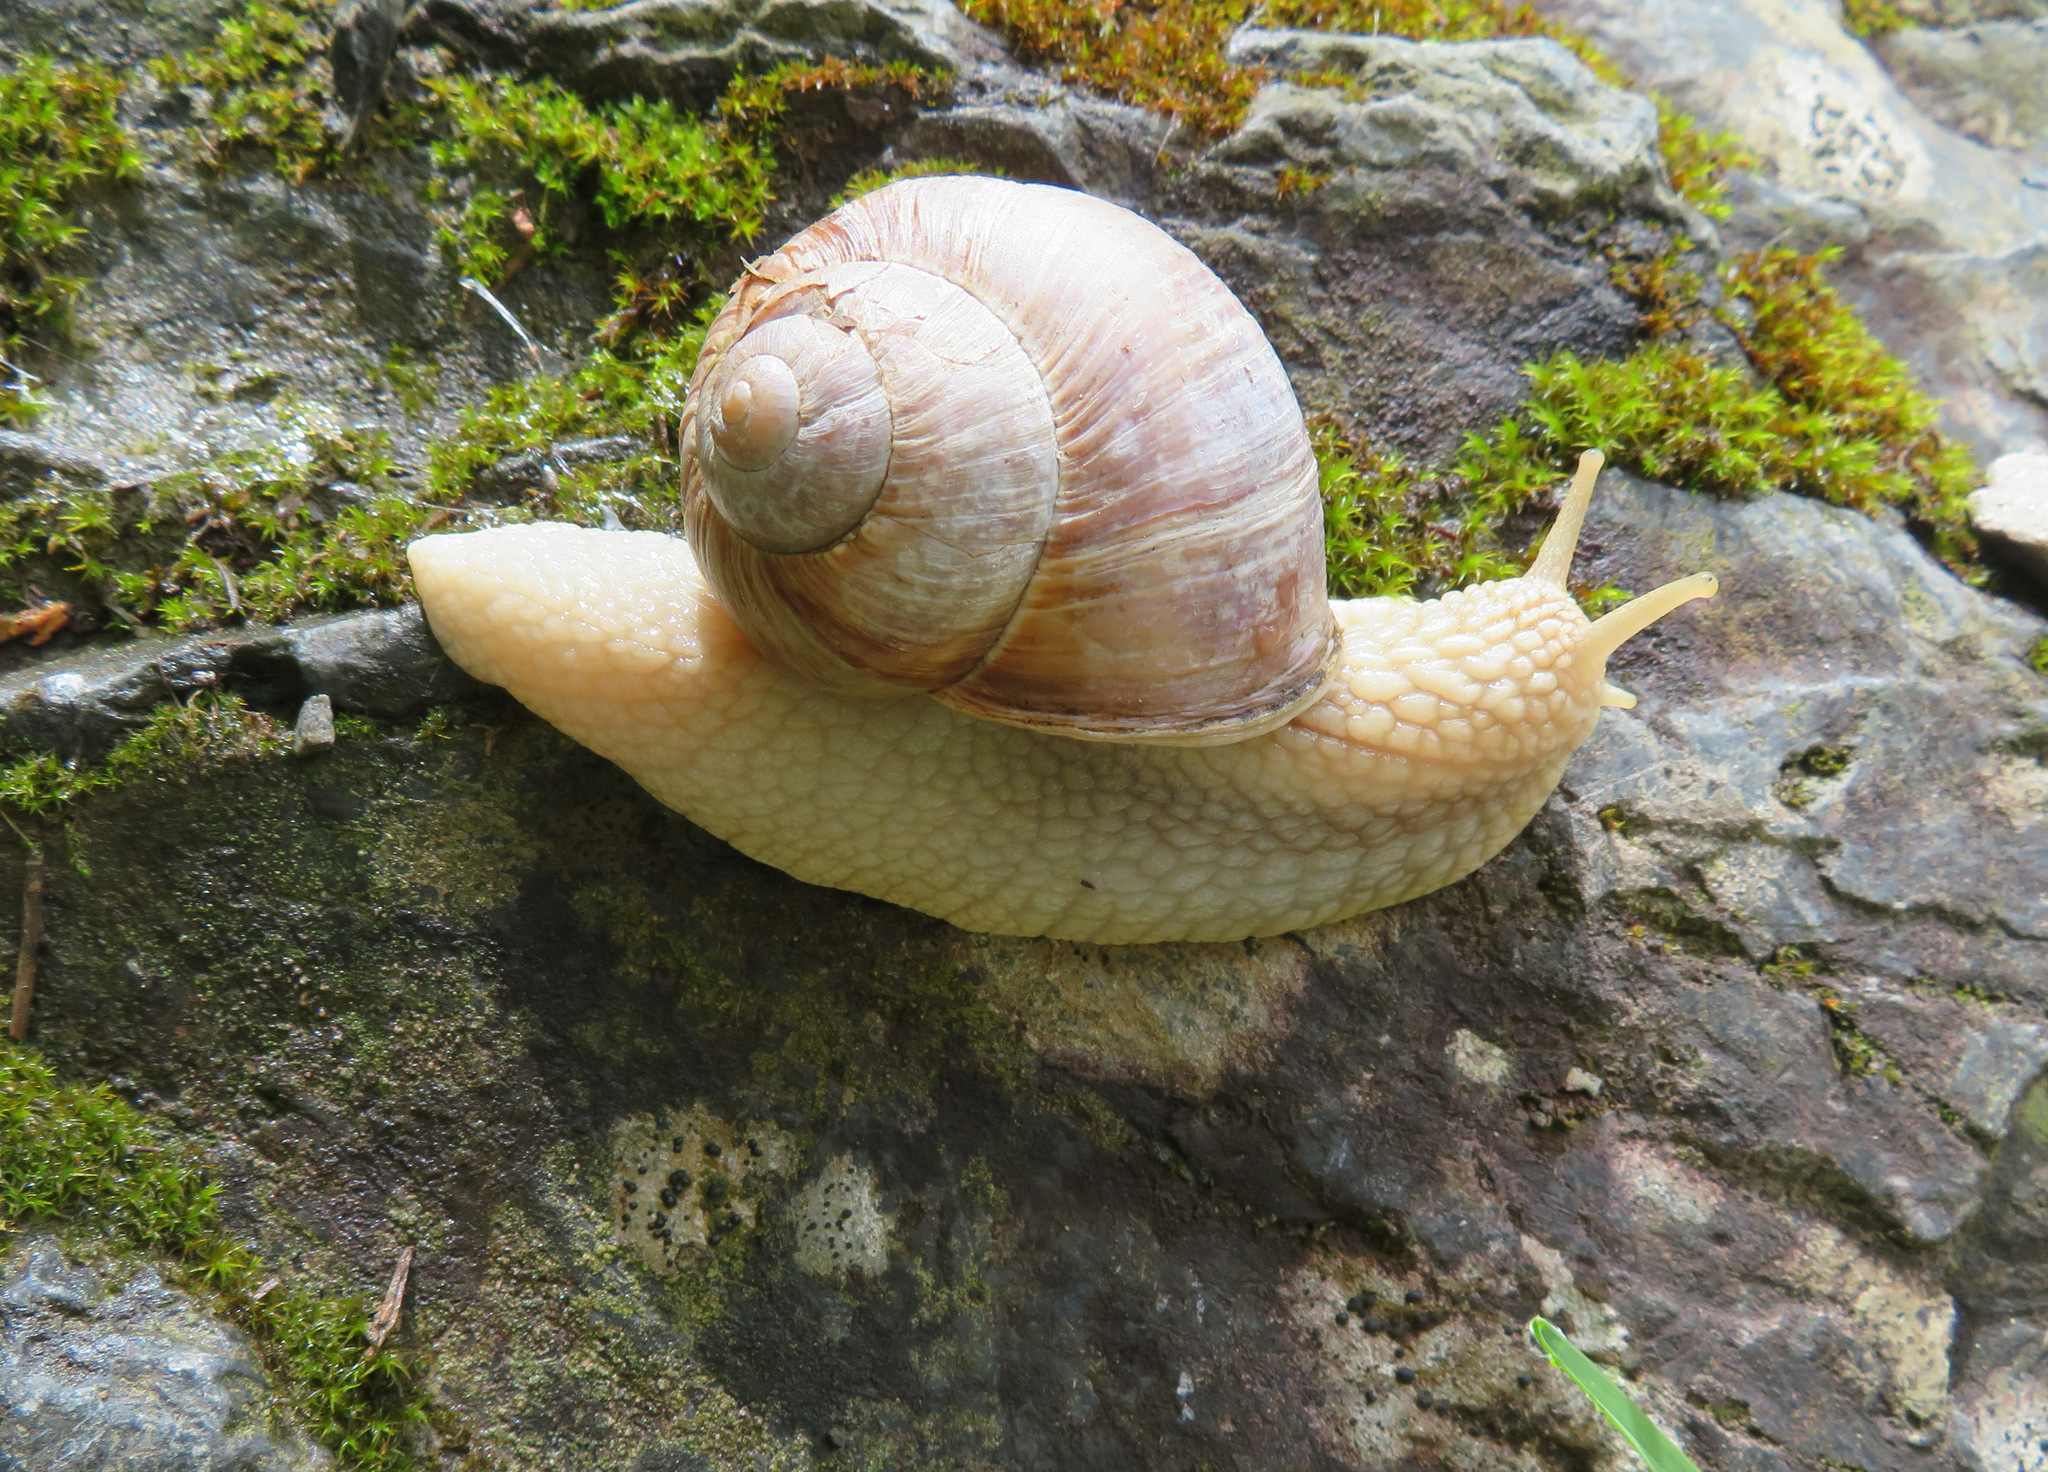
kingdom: Animalia
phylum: Mollusca
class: Gastropoda
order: Stylommatophora
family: Helicidae
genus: Helix
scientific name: Helix pomatia
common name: Roman snail
